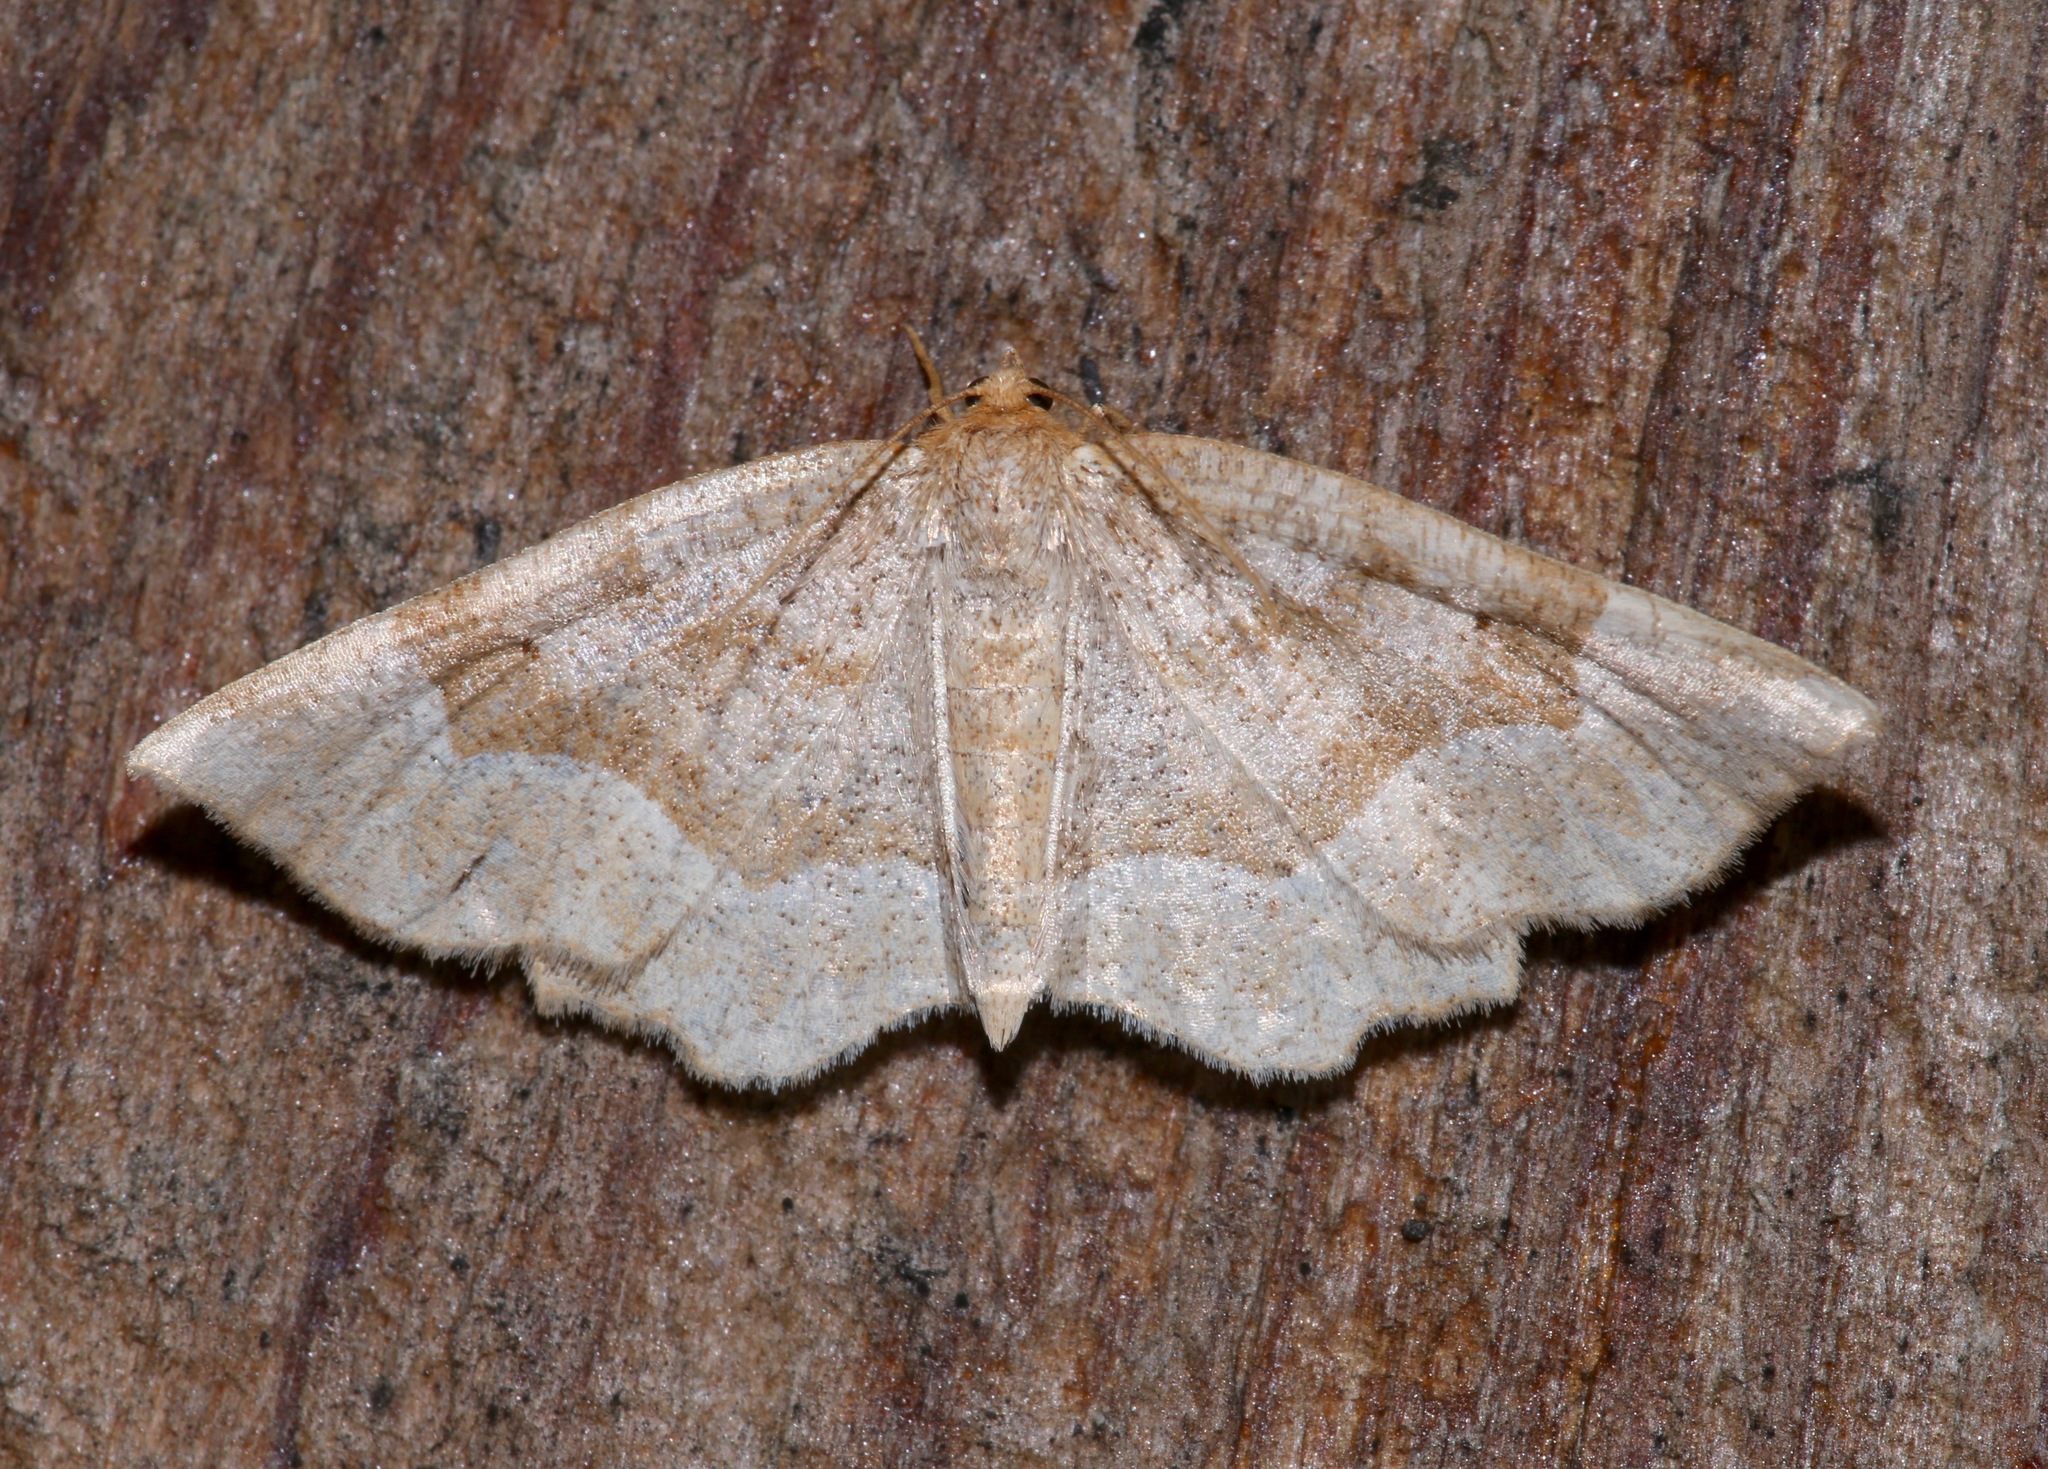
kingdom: Animalia
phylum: Arthropoda
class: Insecta
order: Lepidoptera
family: Geometridae
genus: Metarranthis
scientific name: Metarranthis indeclinata
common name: Pale metarranthis
